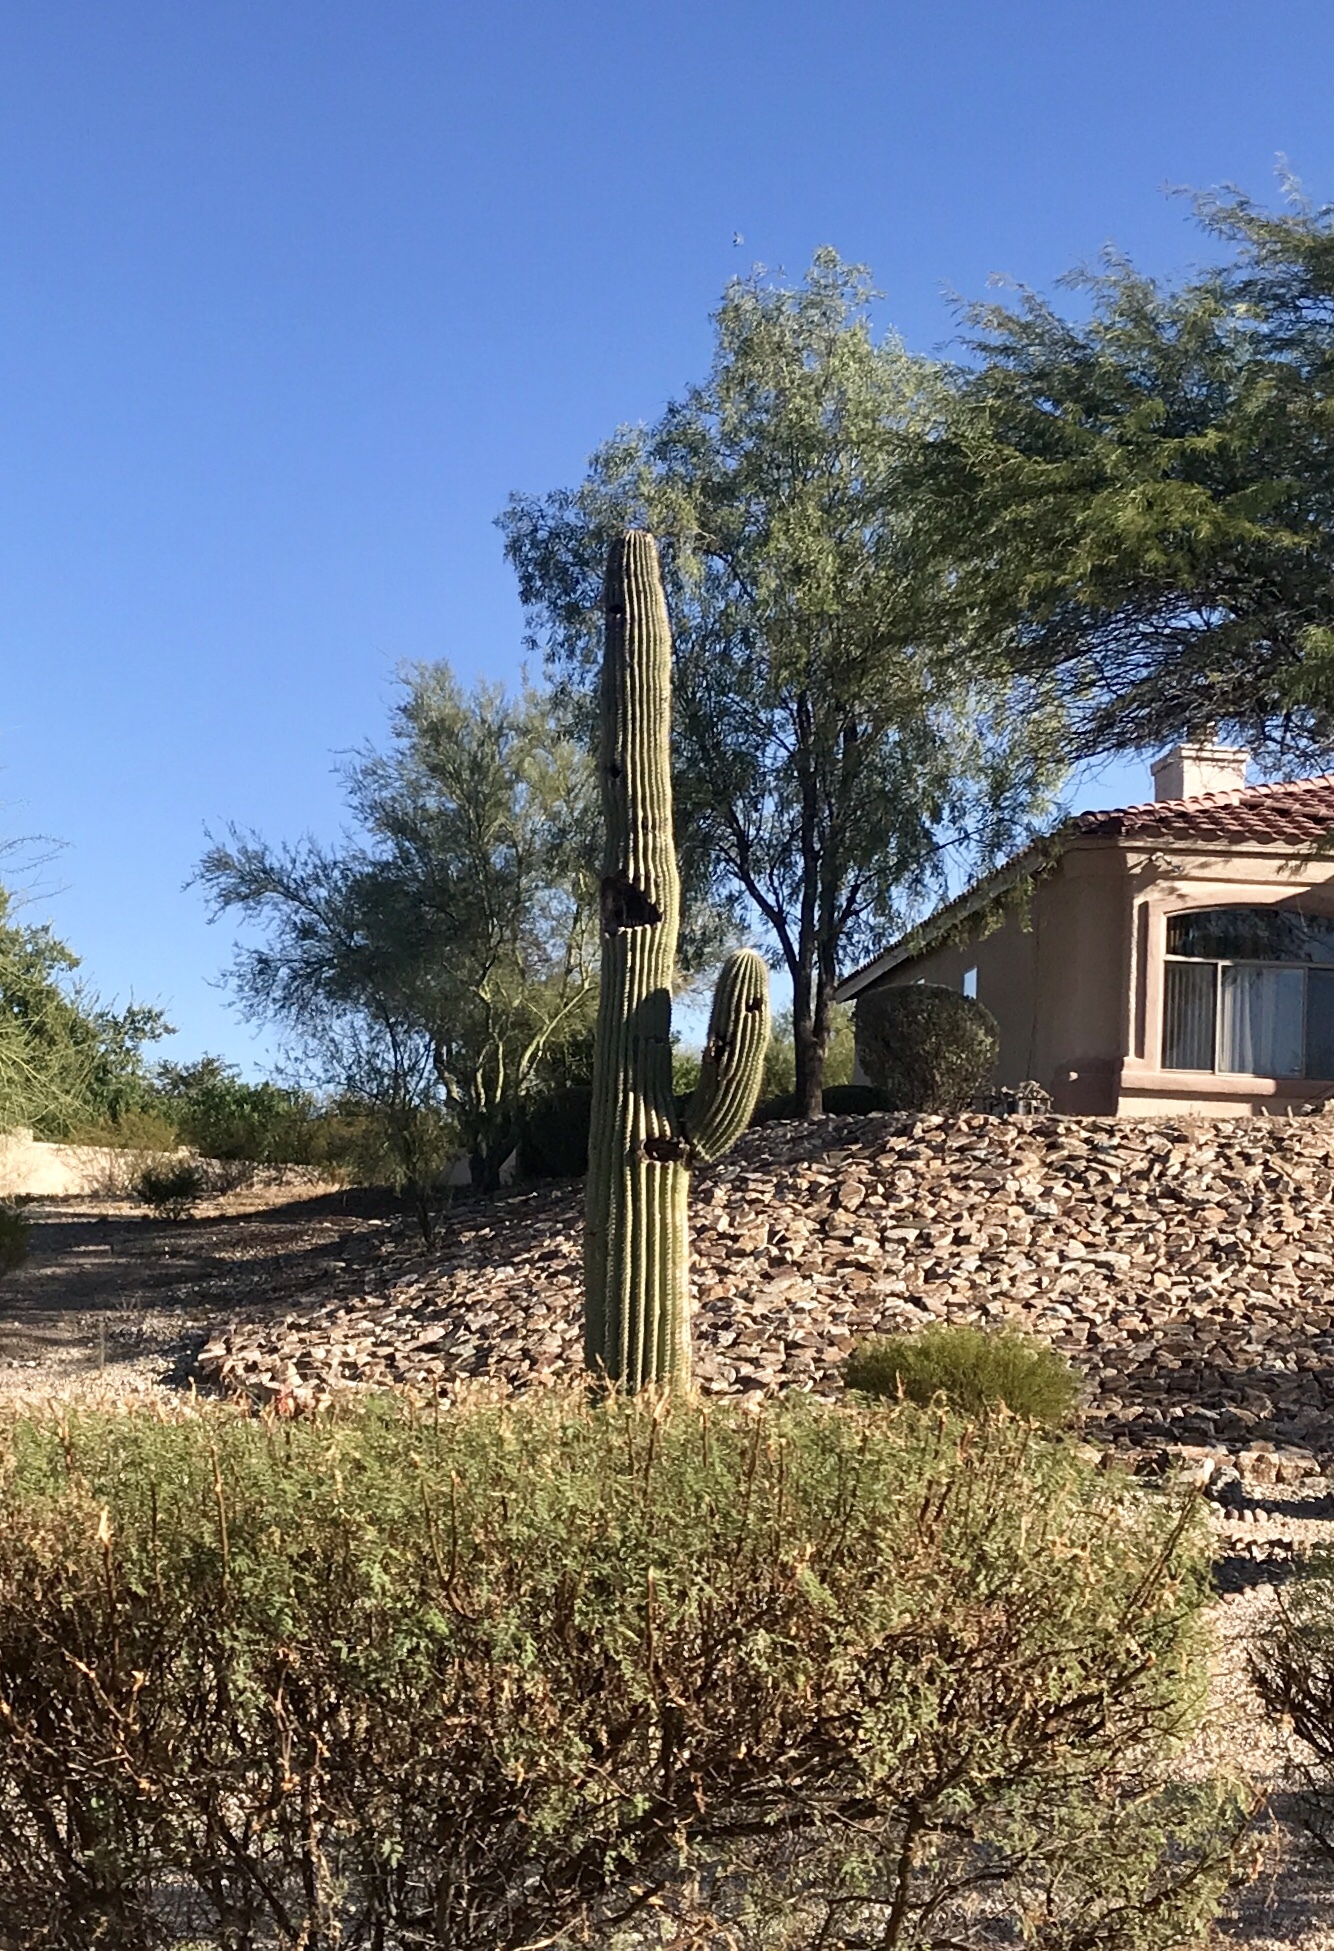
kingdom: Plantae
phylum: Tracheophyta
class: Magnoliopsida
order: Caryophyllales
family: Cactaceae
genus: Carnegiea
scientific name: Carnegiea gigantea
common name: Saguaro
